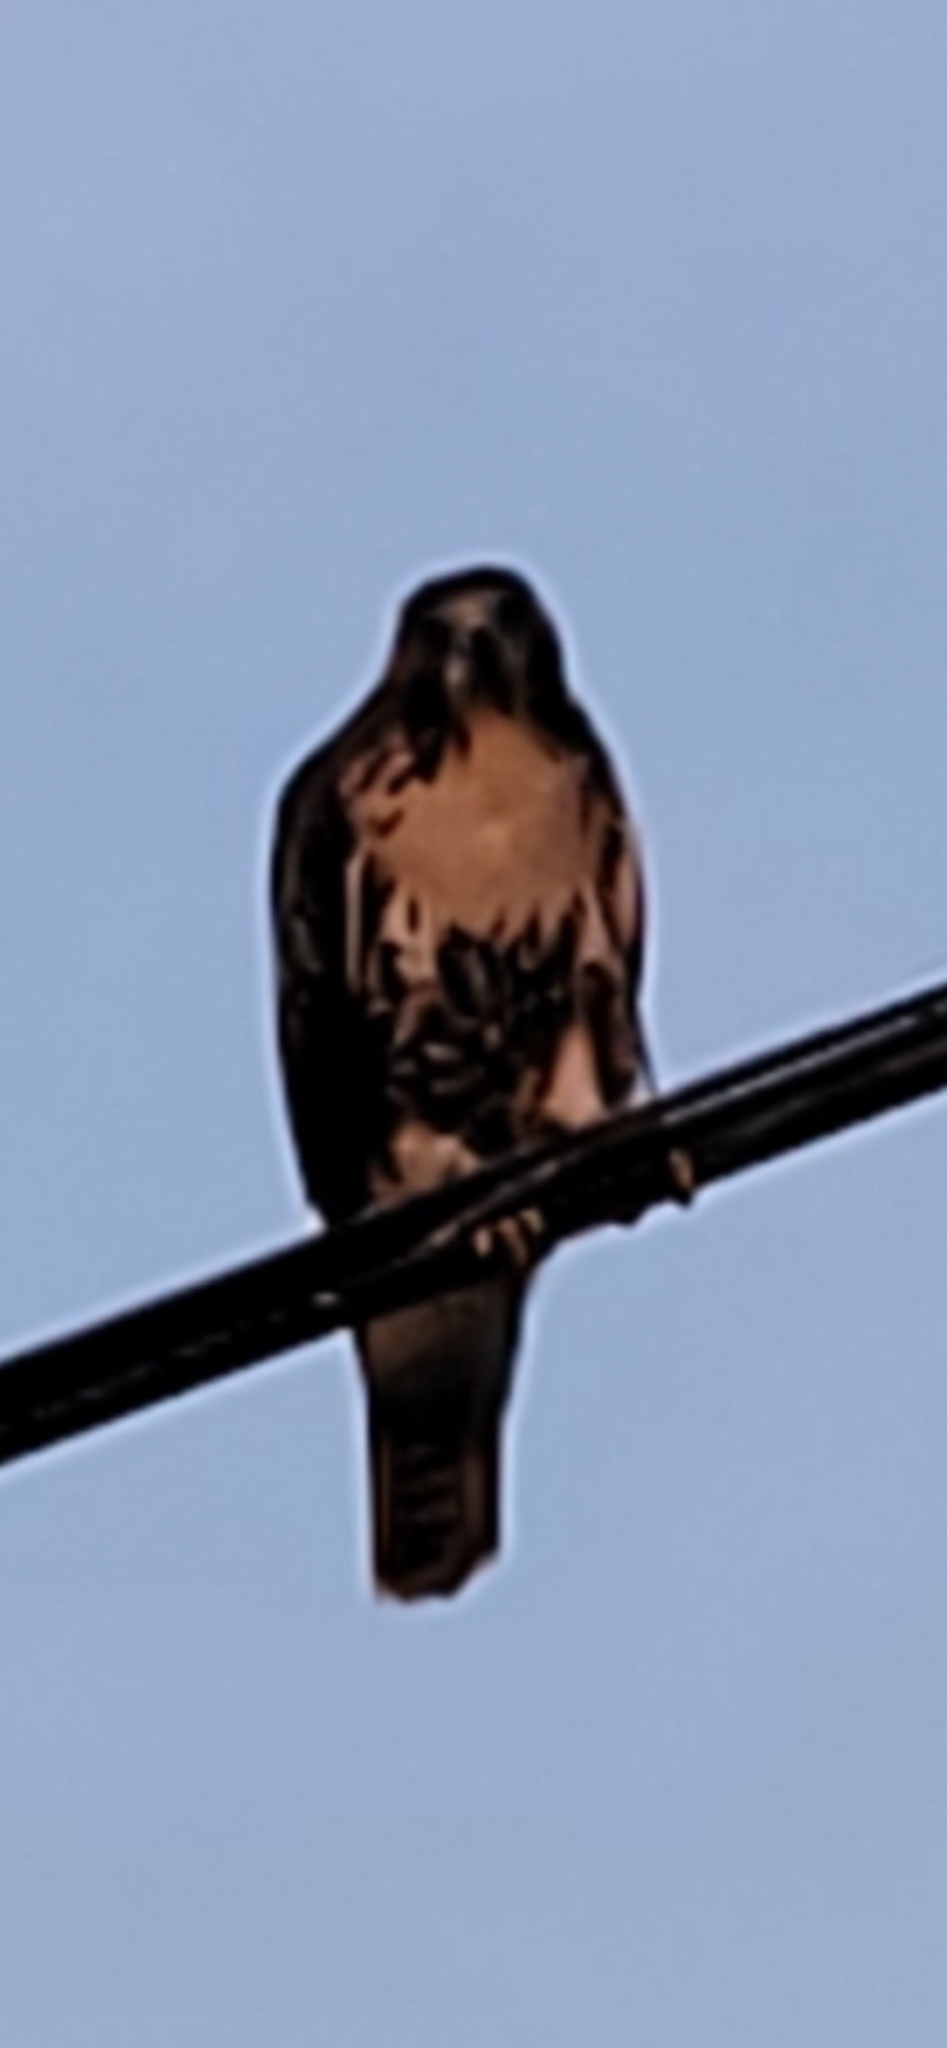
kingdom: Animalia
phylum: Chordata
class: Aves
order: Accipitriformes
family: Accipitridae
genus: Buteo
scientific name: Buteo jamaicensis
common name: Red-tailed hawk
